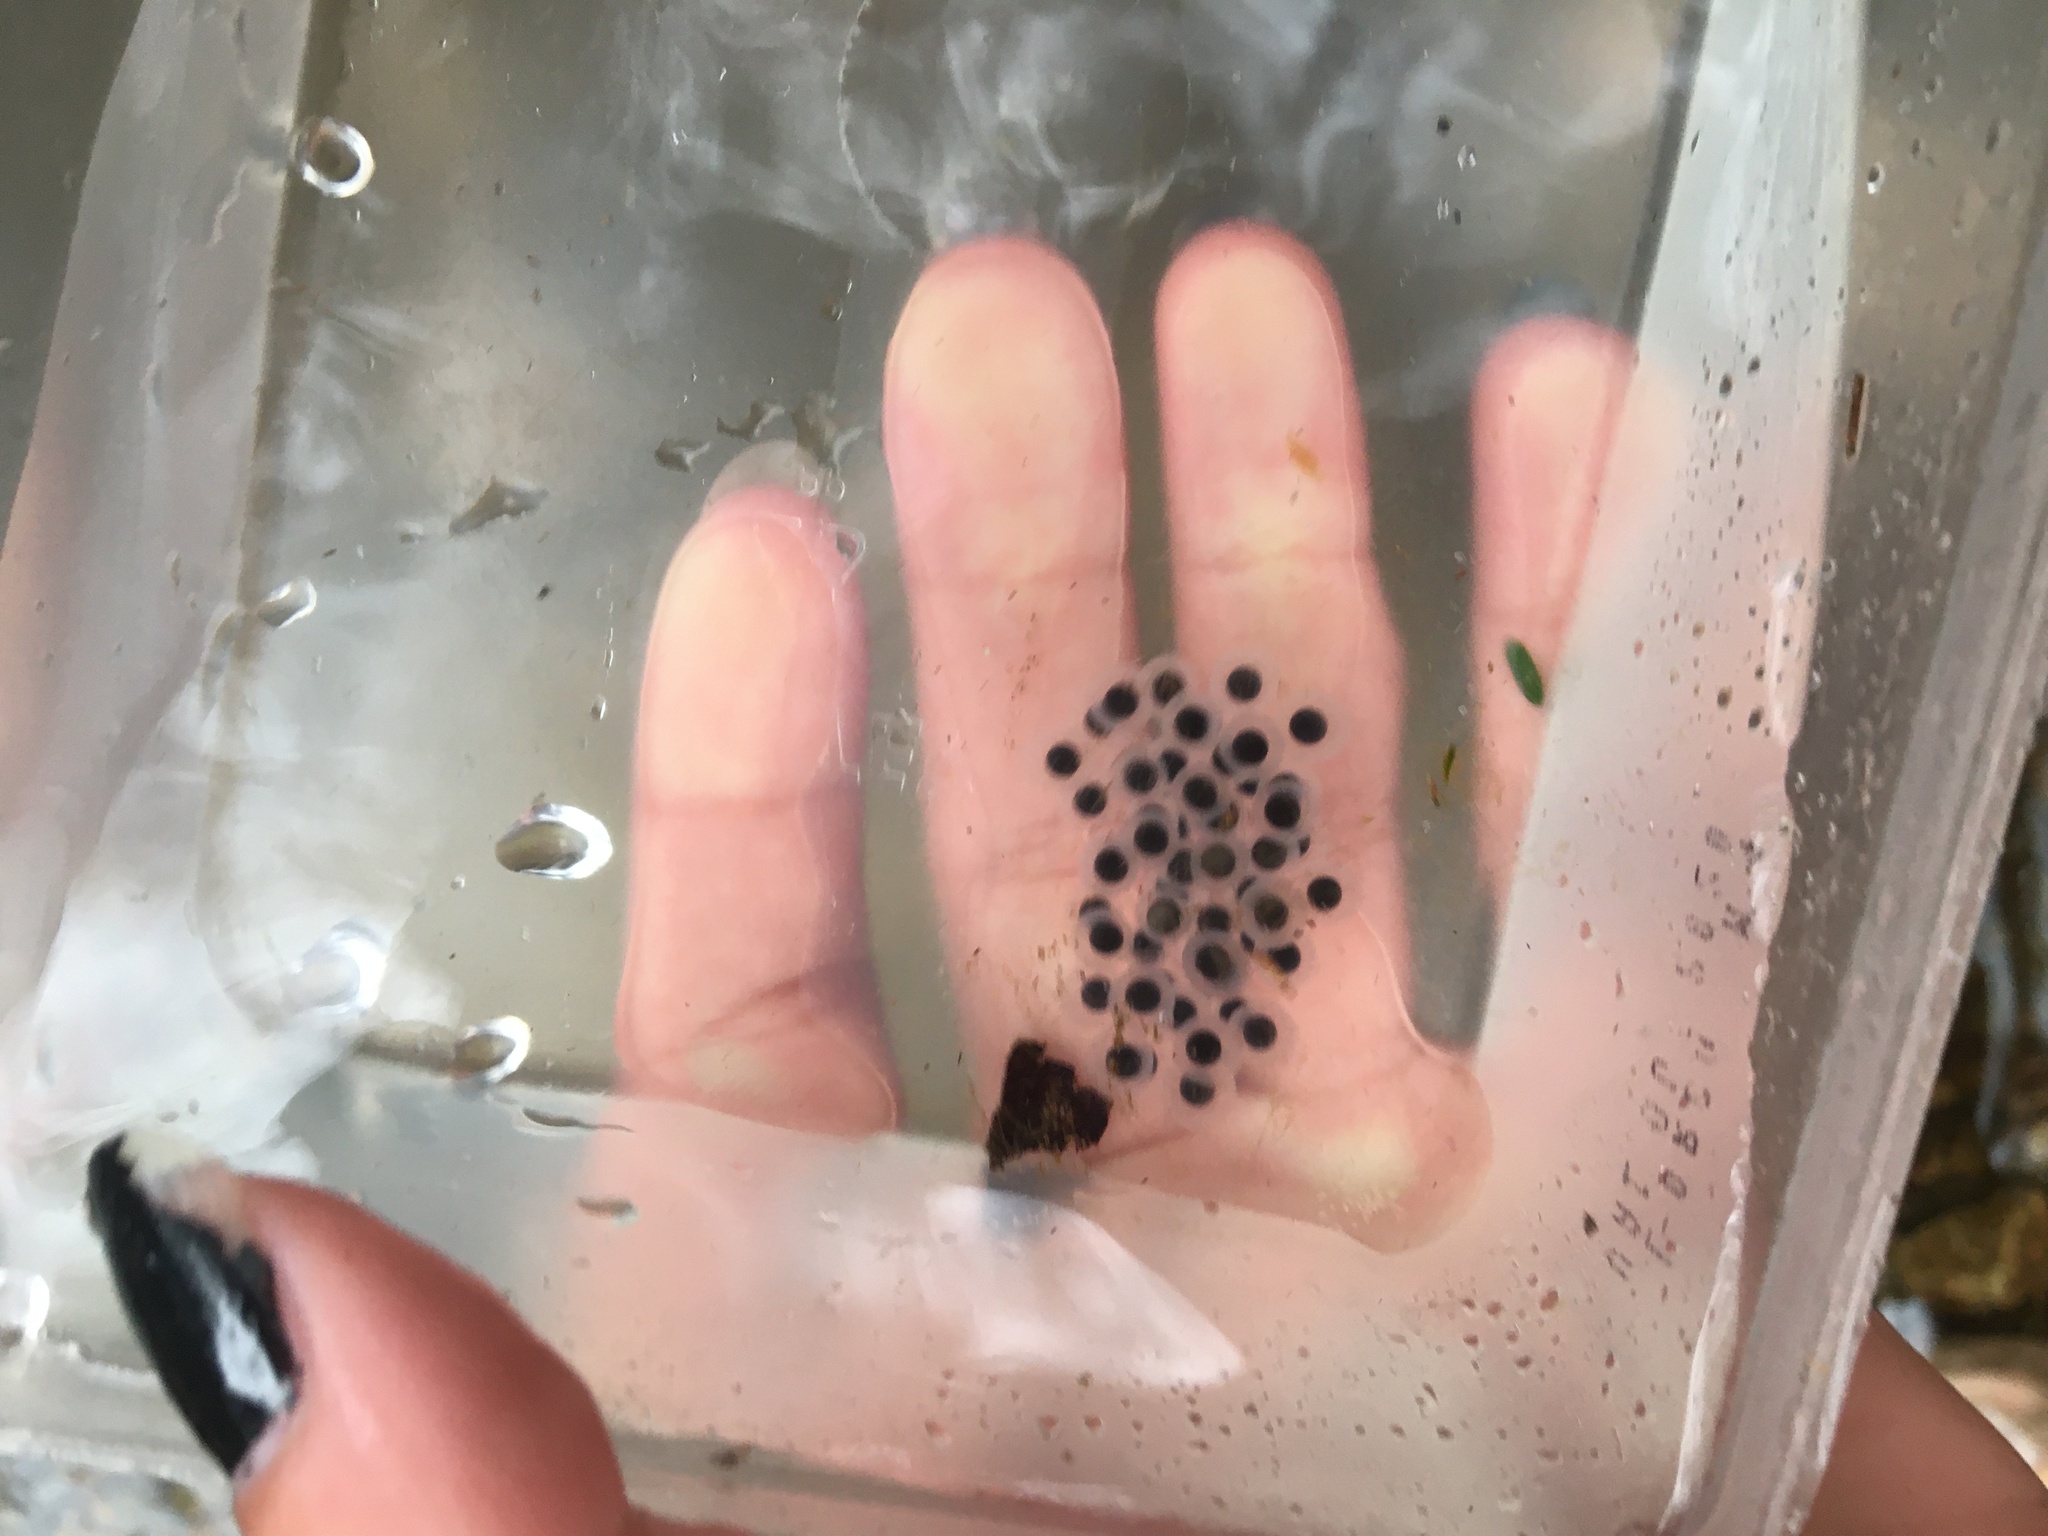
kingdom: Animalia
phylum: Chordata
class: Amphibia
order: Caudata
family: Ambystomatidae
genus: Ambystoma
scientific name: Ambystoma maculatum
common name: Spotted salamander
